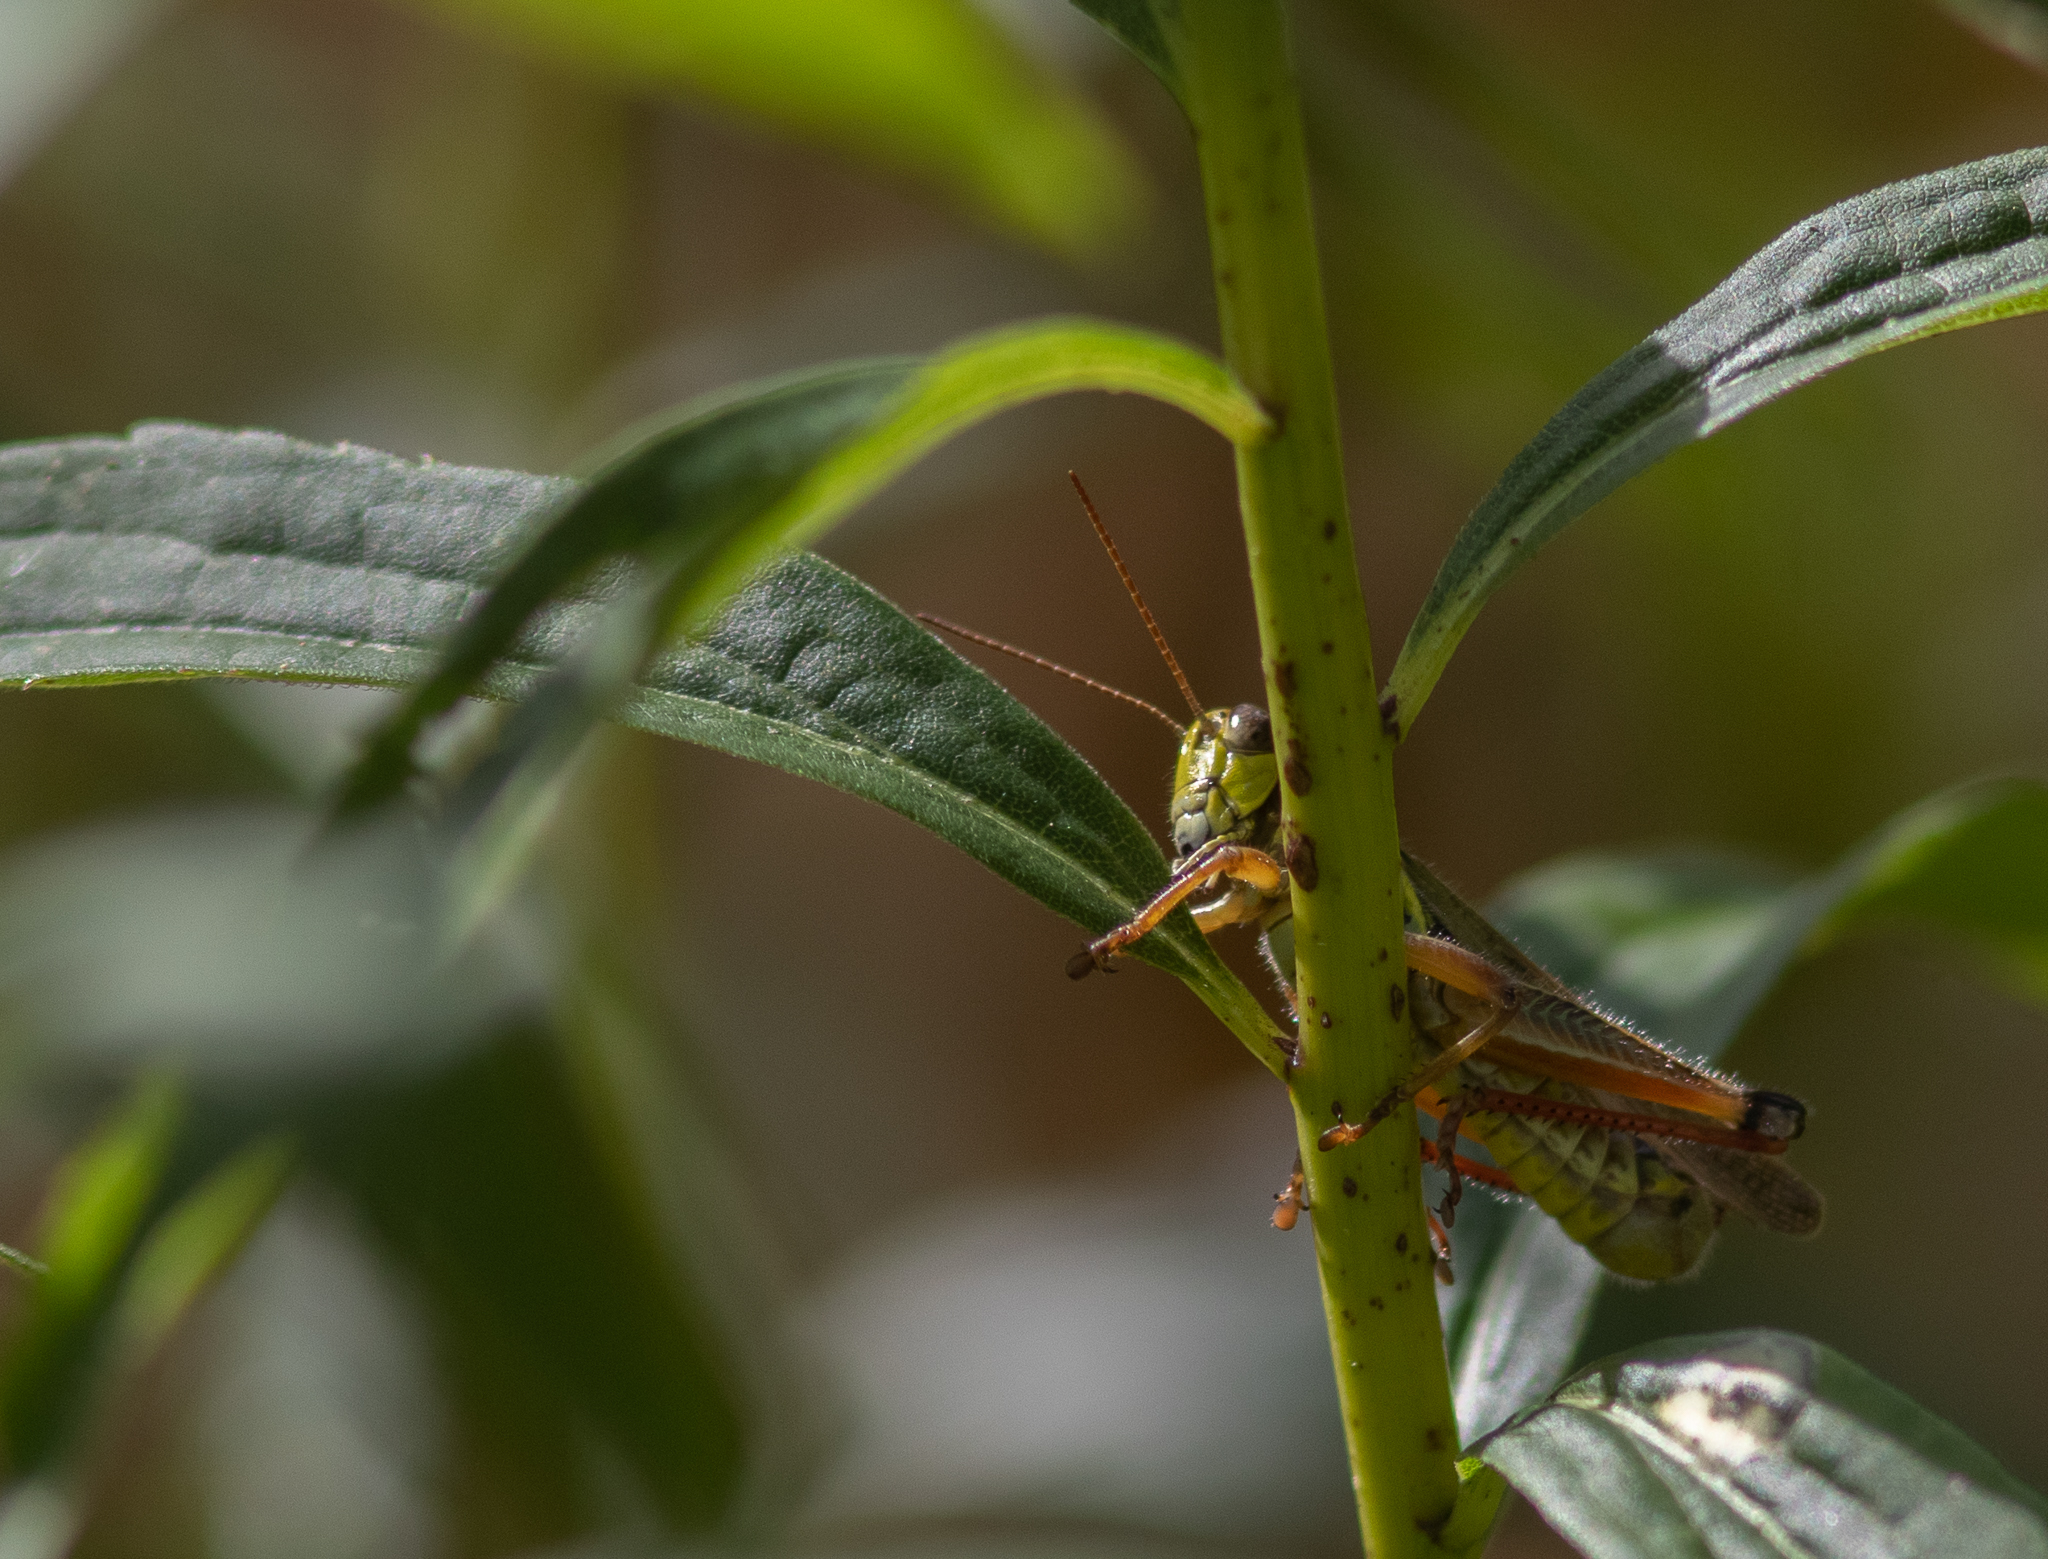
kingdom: Animalia
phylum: Arthropoda
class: Insecta
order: Orthoptera
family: Acrididae
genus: Melanoplus
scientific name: Melanoplus femurrubrum
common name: Red-legged grasshopper
